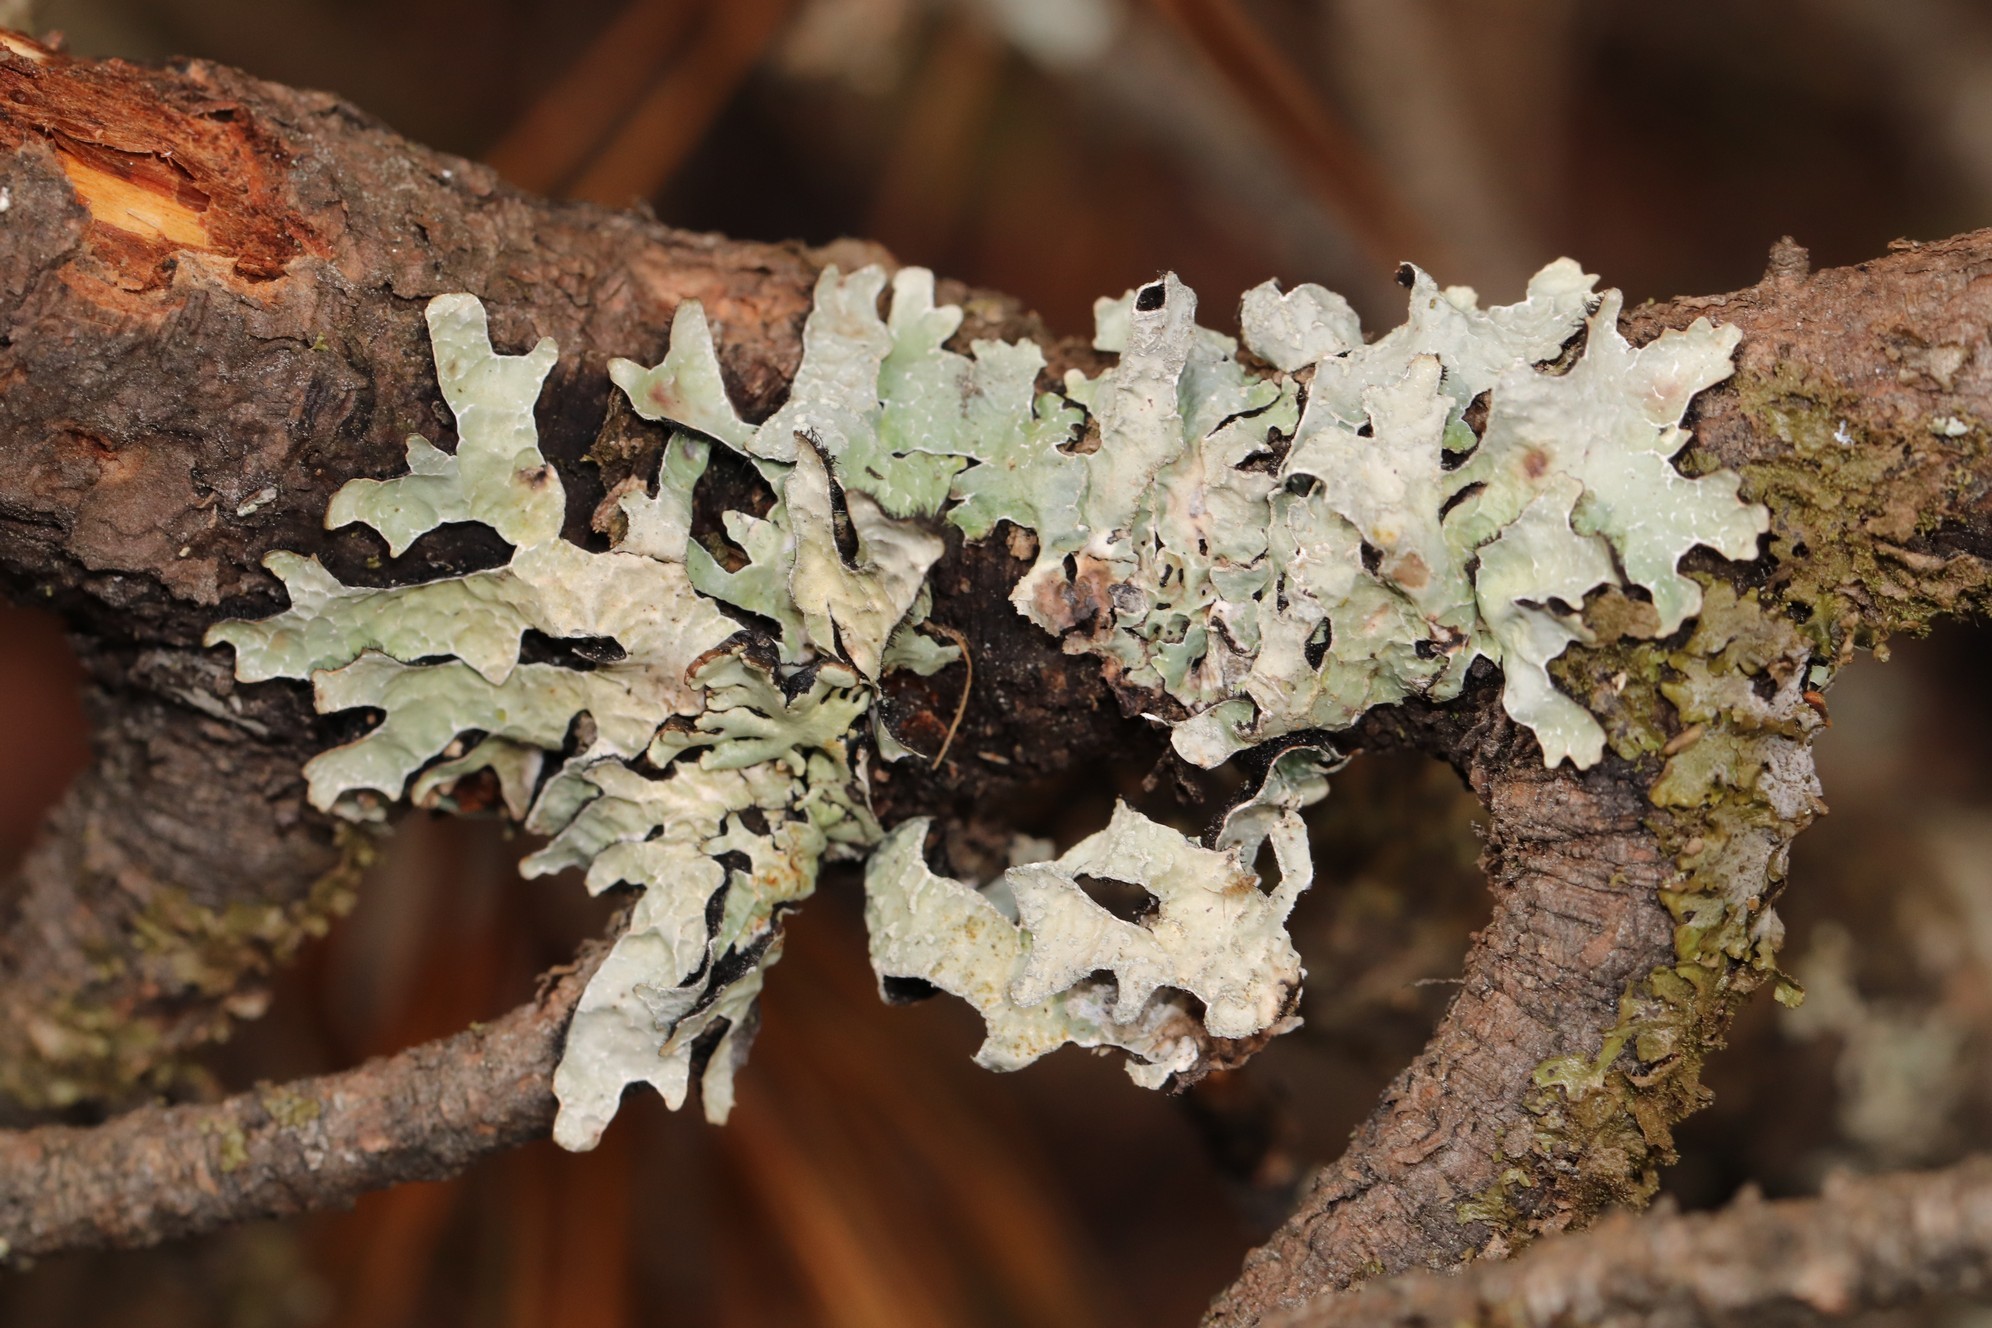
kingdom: Fungi
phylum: Ascomycota
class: Lecanoromycetes
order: Lecanorales
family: Parmeliaceae
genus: Parmelia
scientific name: Parmelia sulcata
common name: Netted shield lichen
